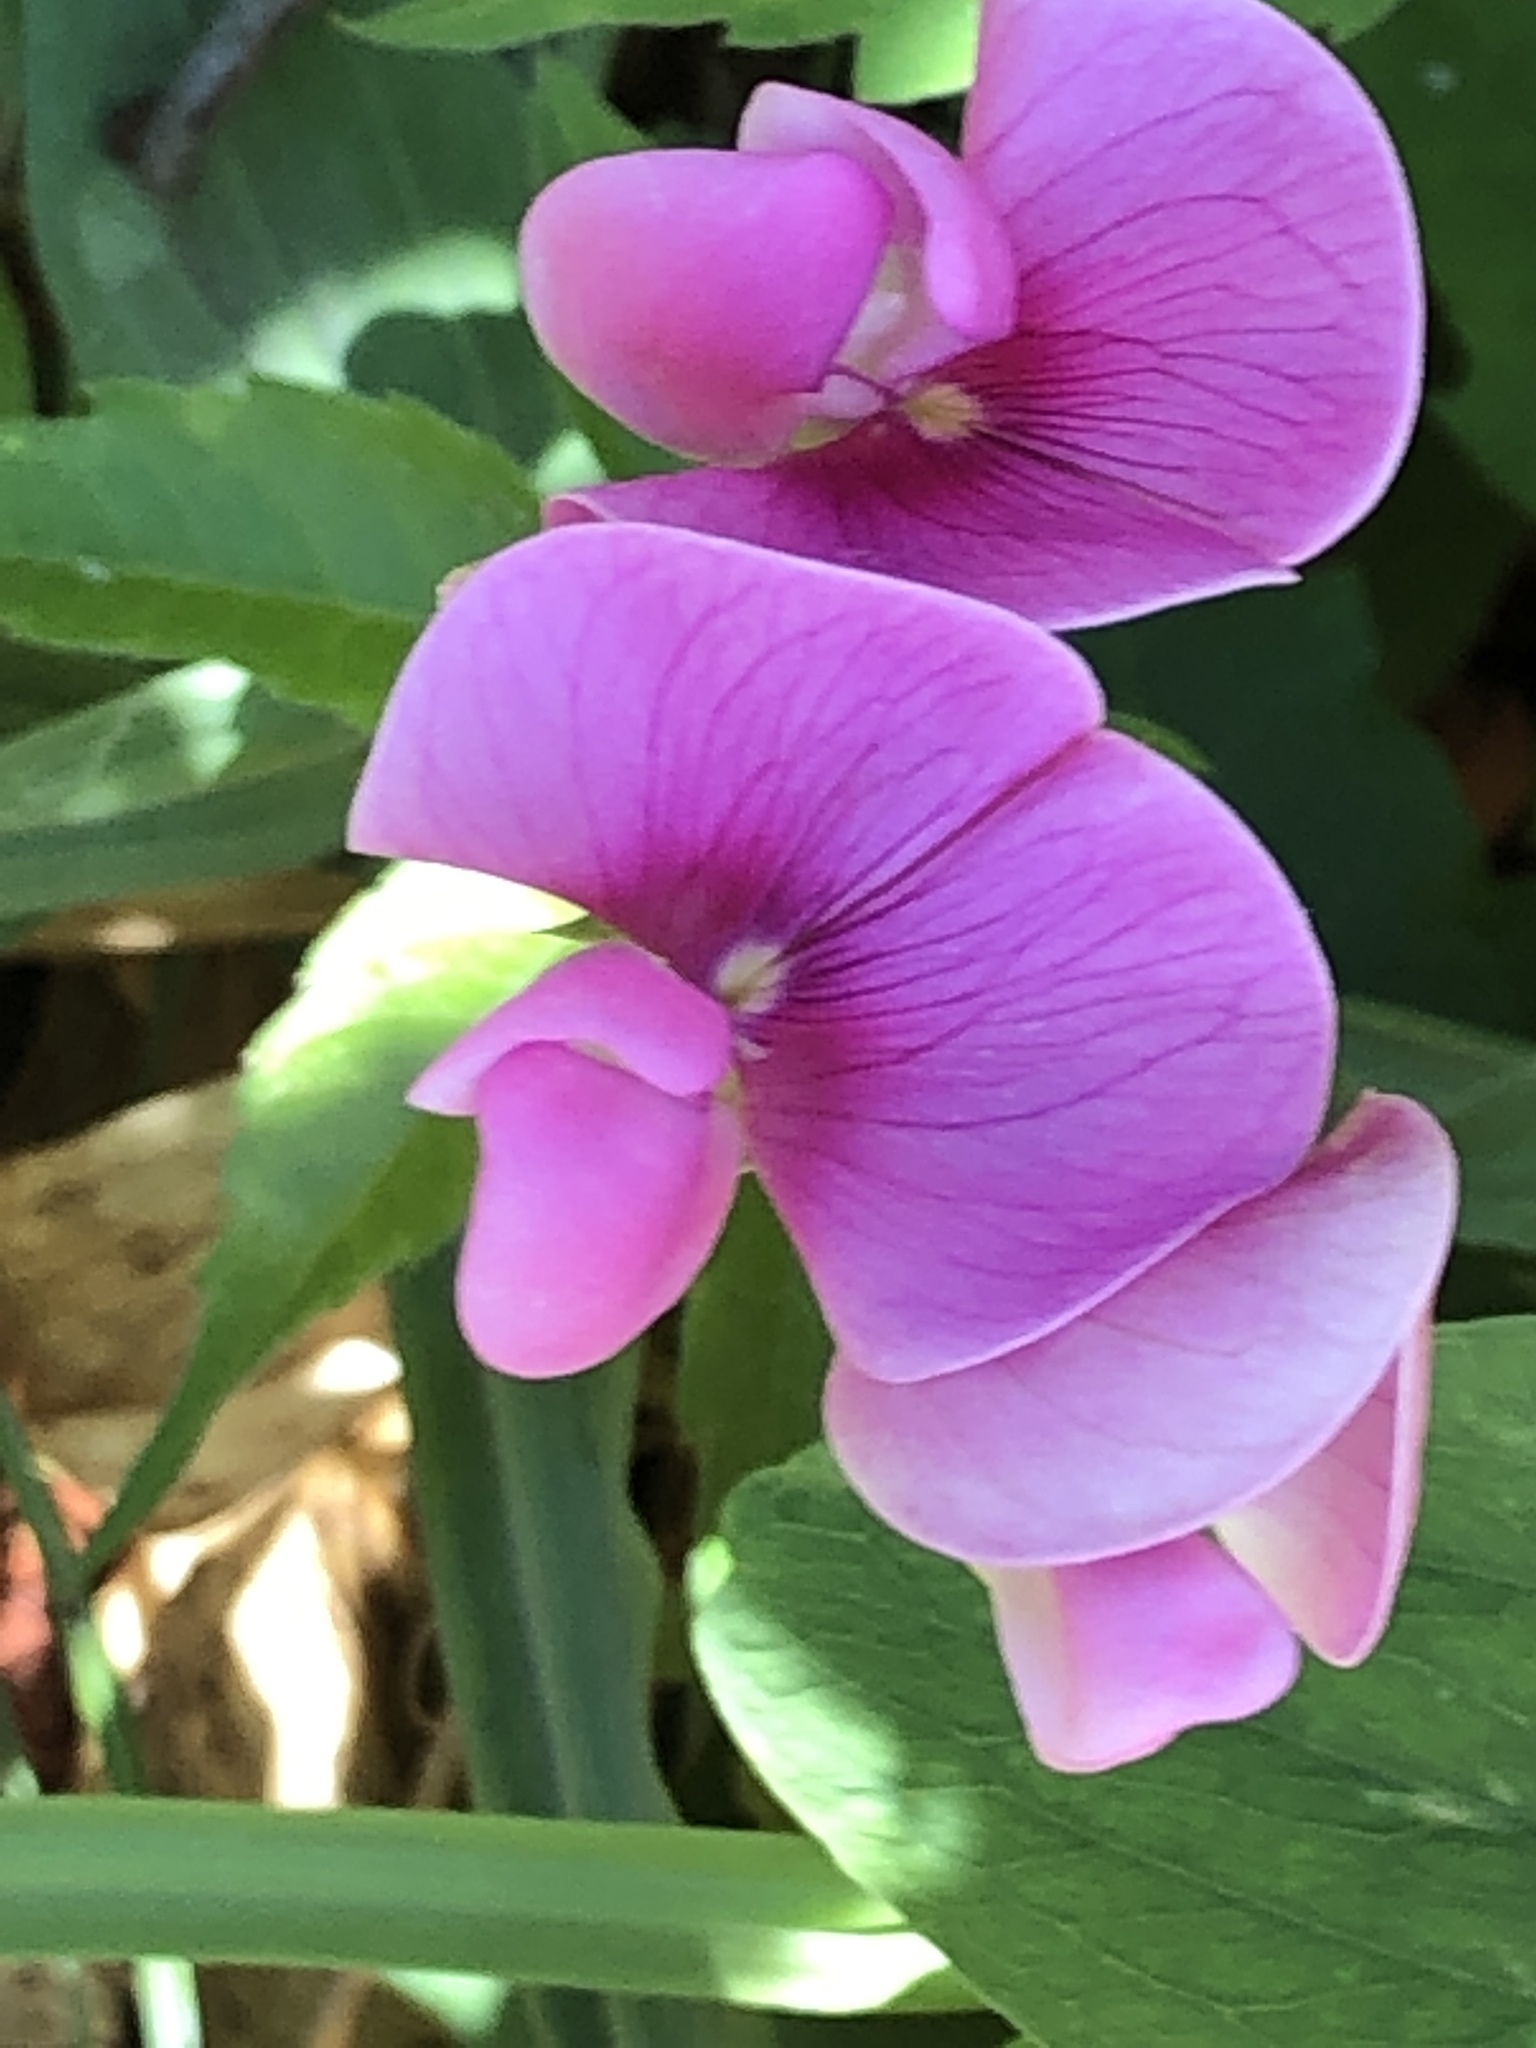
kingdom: Plantae
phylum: Tracheophyta
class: Magnoliopsida
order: Fabales
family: Fabaceae
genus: Lathyrus
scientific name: Lathyrus latifolius
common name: Perennial pea
